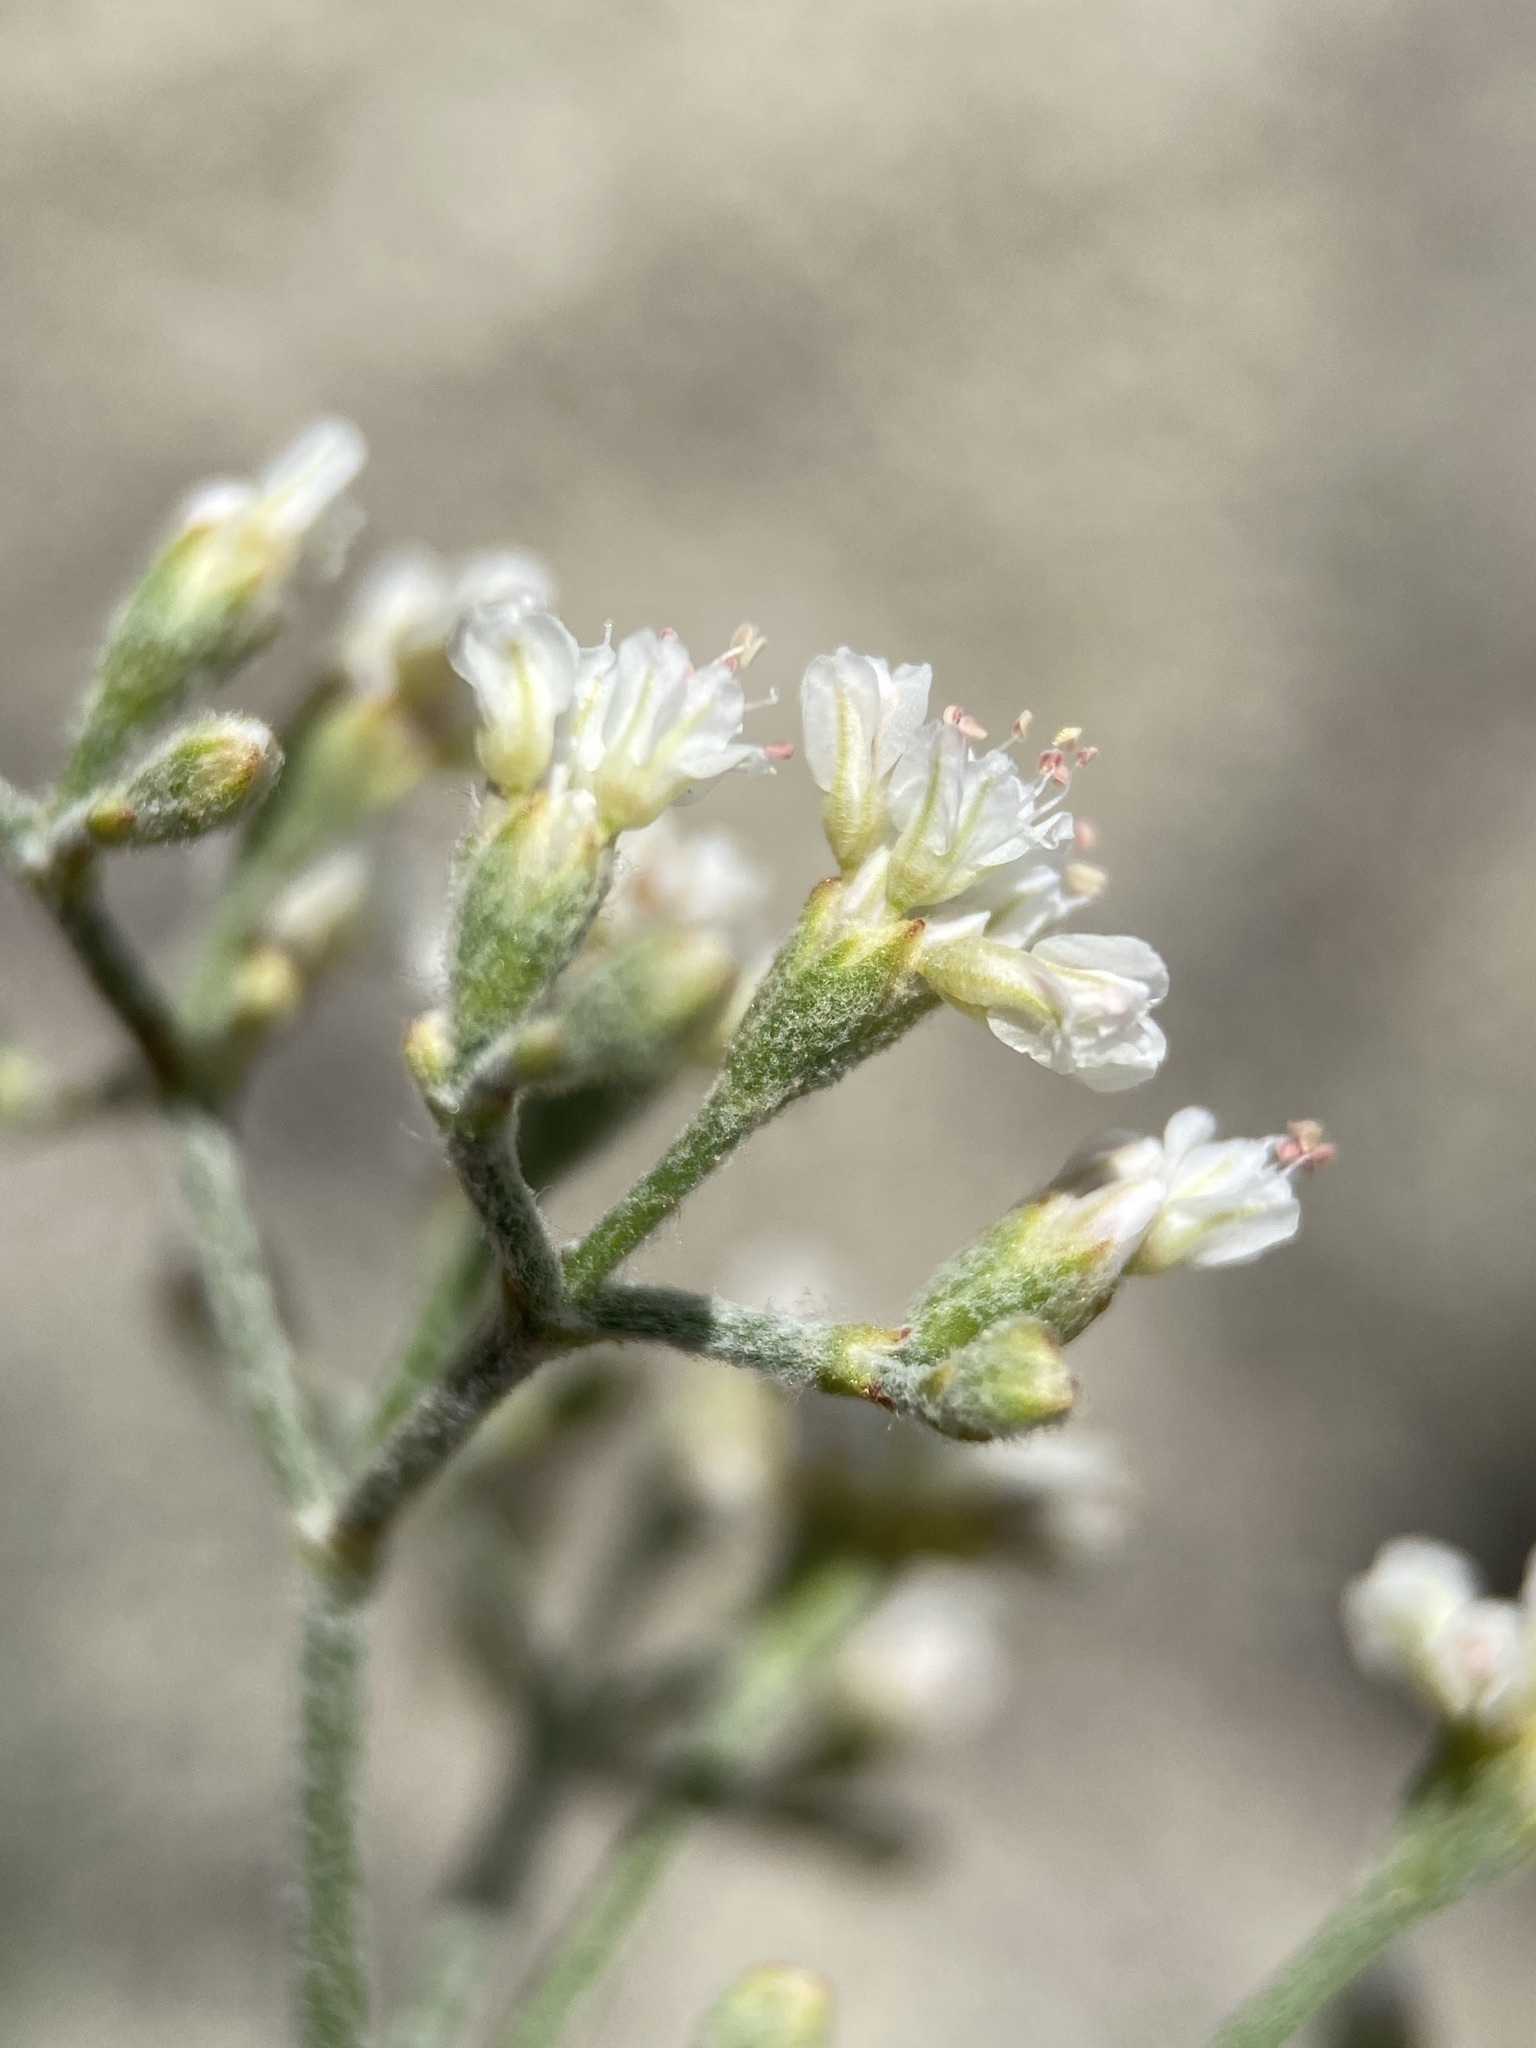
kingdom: Plantae
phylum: Tracheophyta
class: Magnoliopsida
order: Caryophyllales
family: Polygonaceae
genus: Eriogonum
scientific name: Eriogonum microtheca
